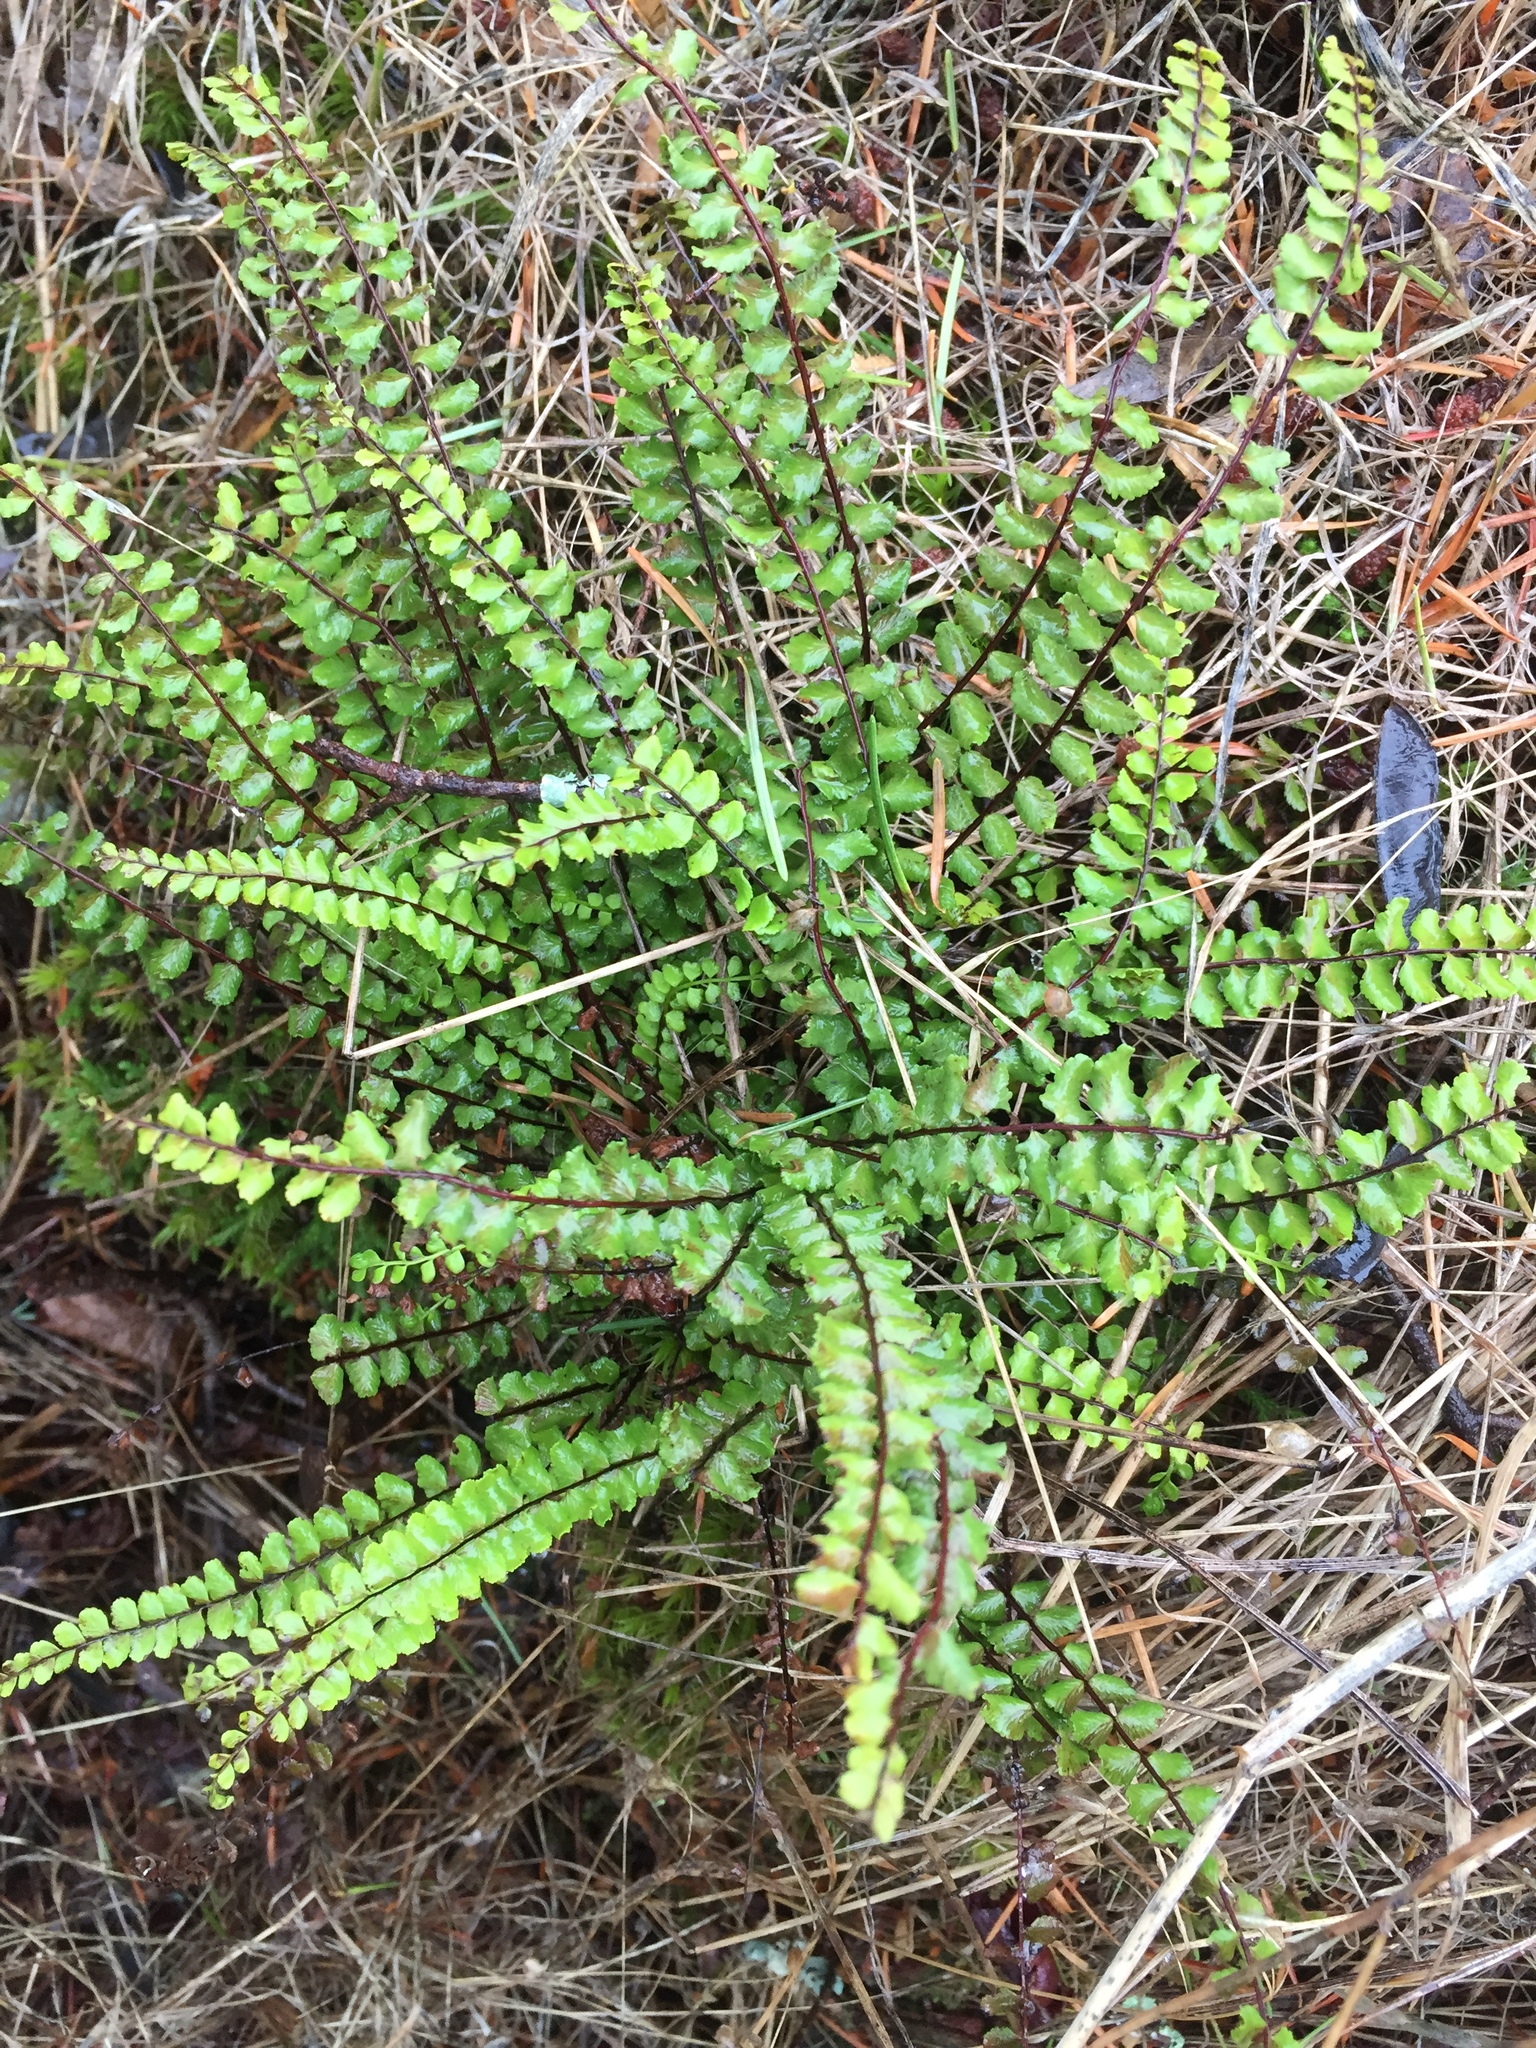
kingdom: Plantae
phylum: Tracheophyta
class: Polypodiopsida
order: Polypodiales
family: Aspleniaceae
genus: Asplenium
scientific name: Asplenium trichomanes
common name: Maidenhair spleenwort
